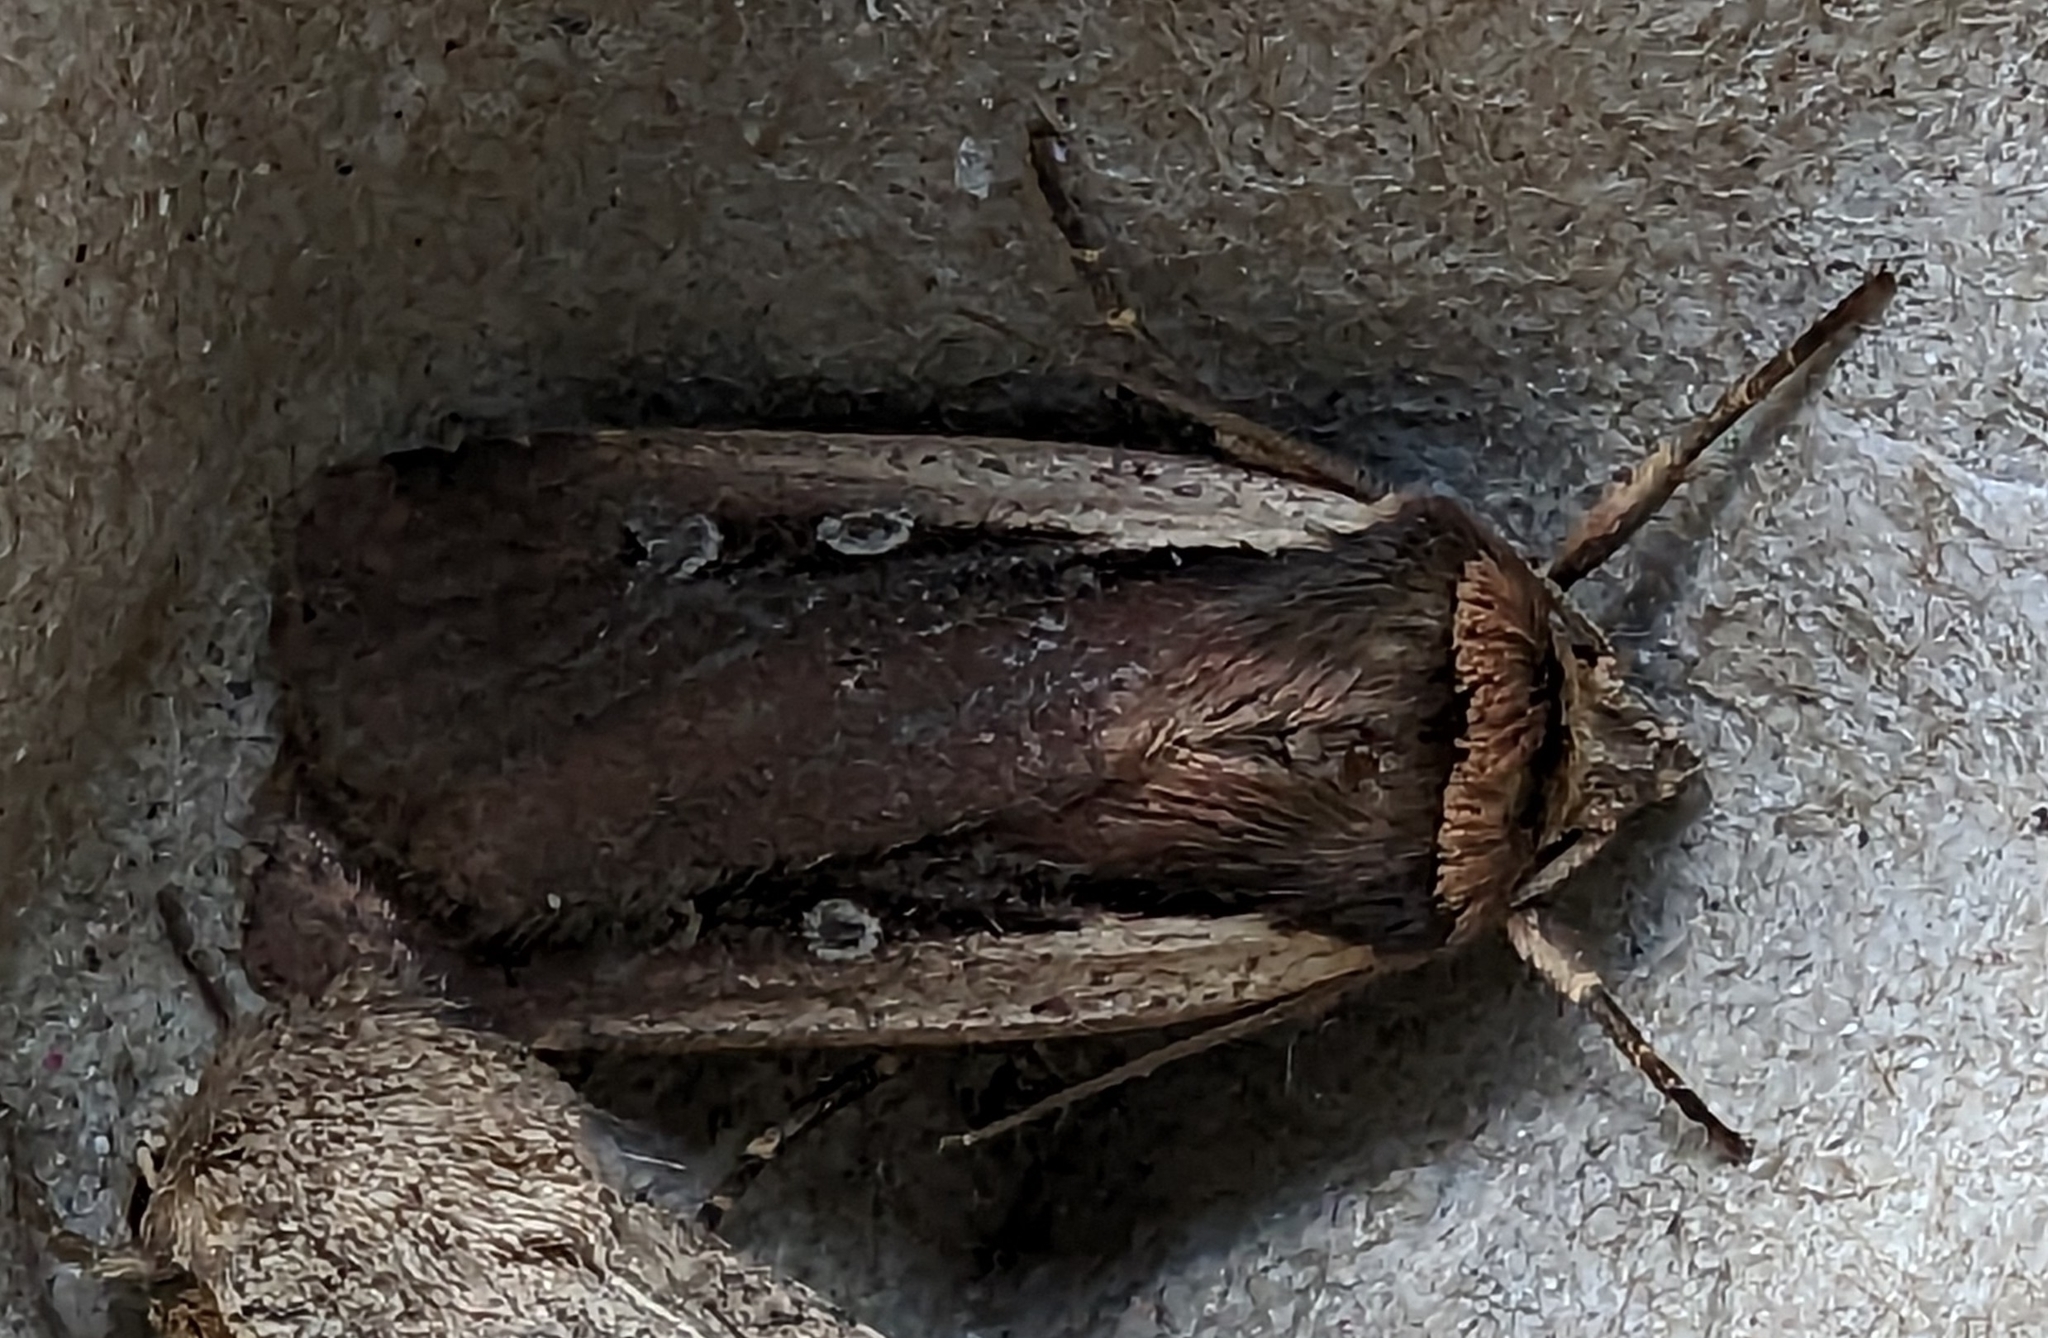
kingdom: Animalia
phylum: Arthropoda
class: Insecta
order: Lepidoptera
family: Noctuidae
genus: Ochropleura
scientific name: Ochropleura plecta
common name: Flame shoulder
